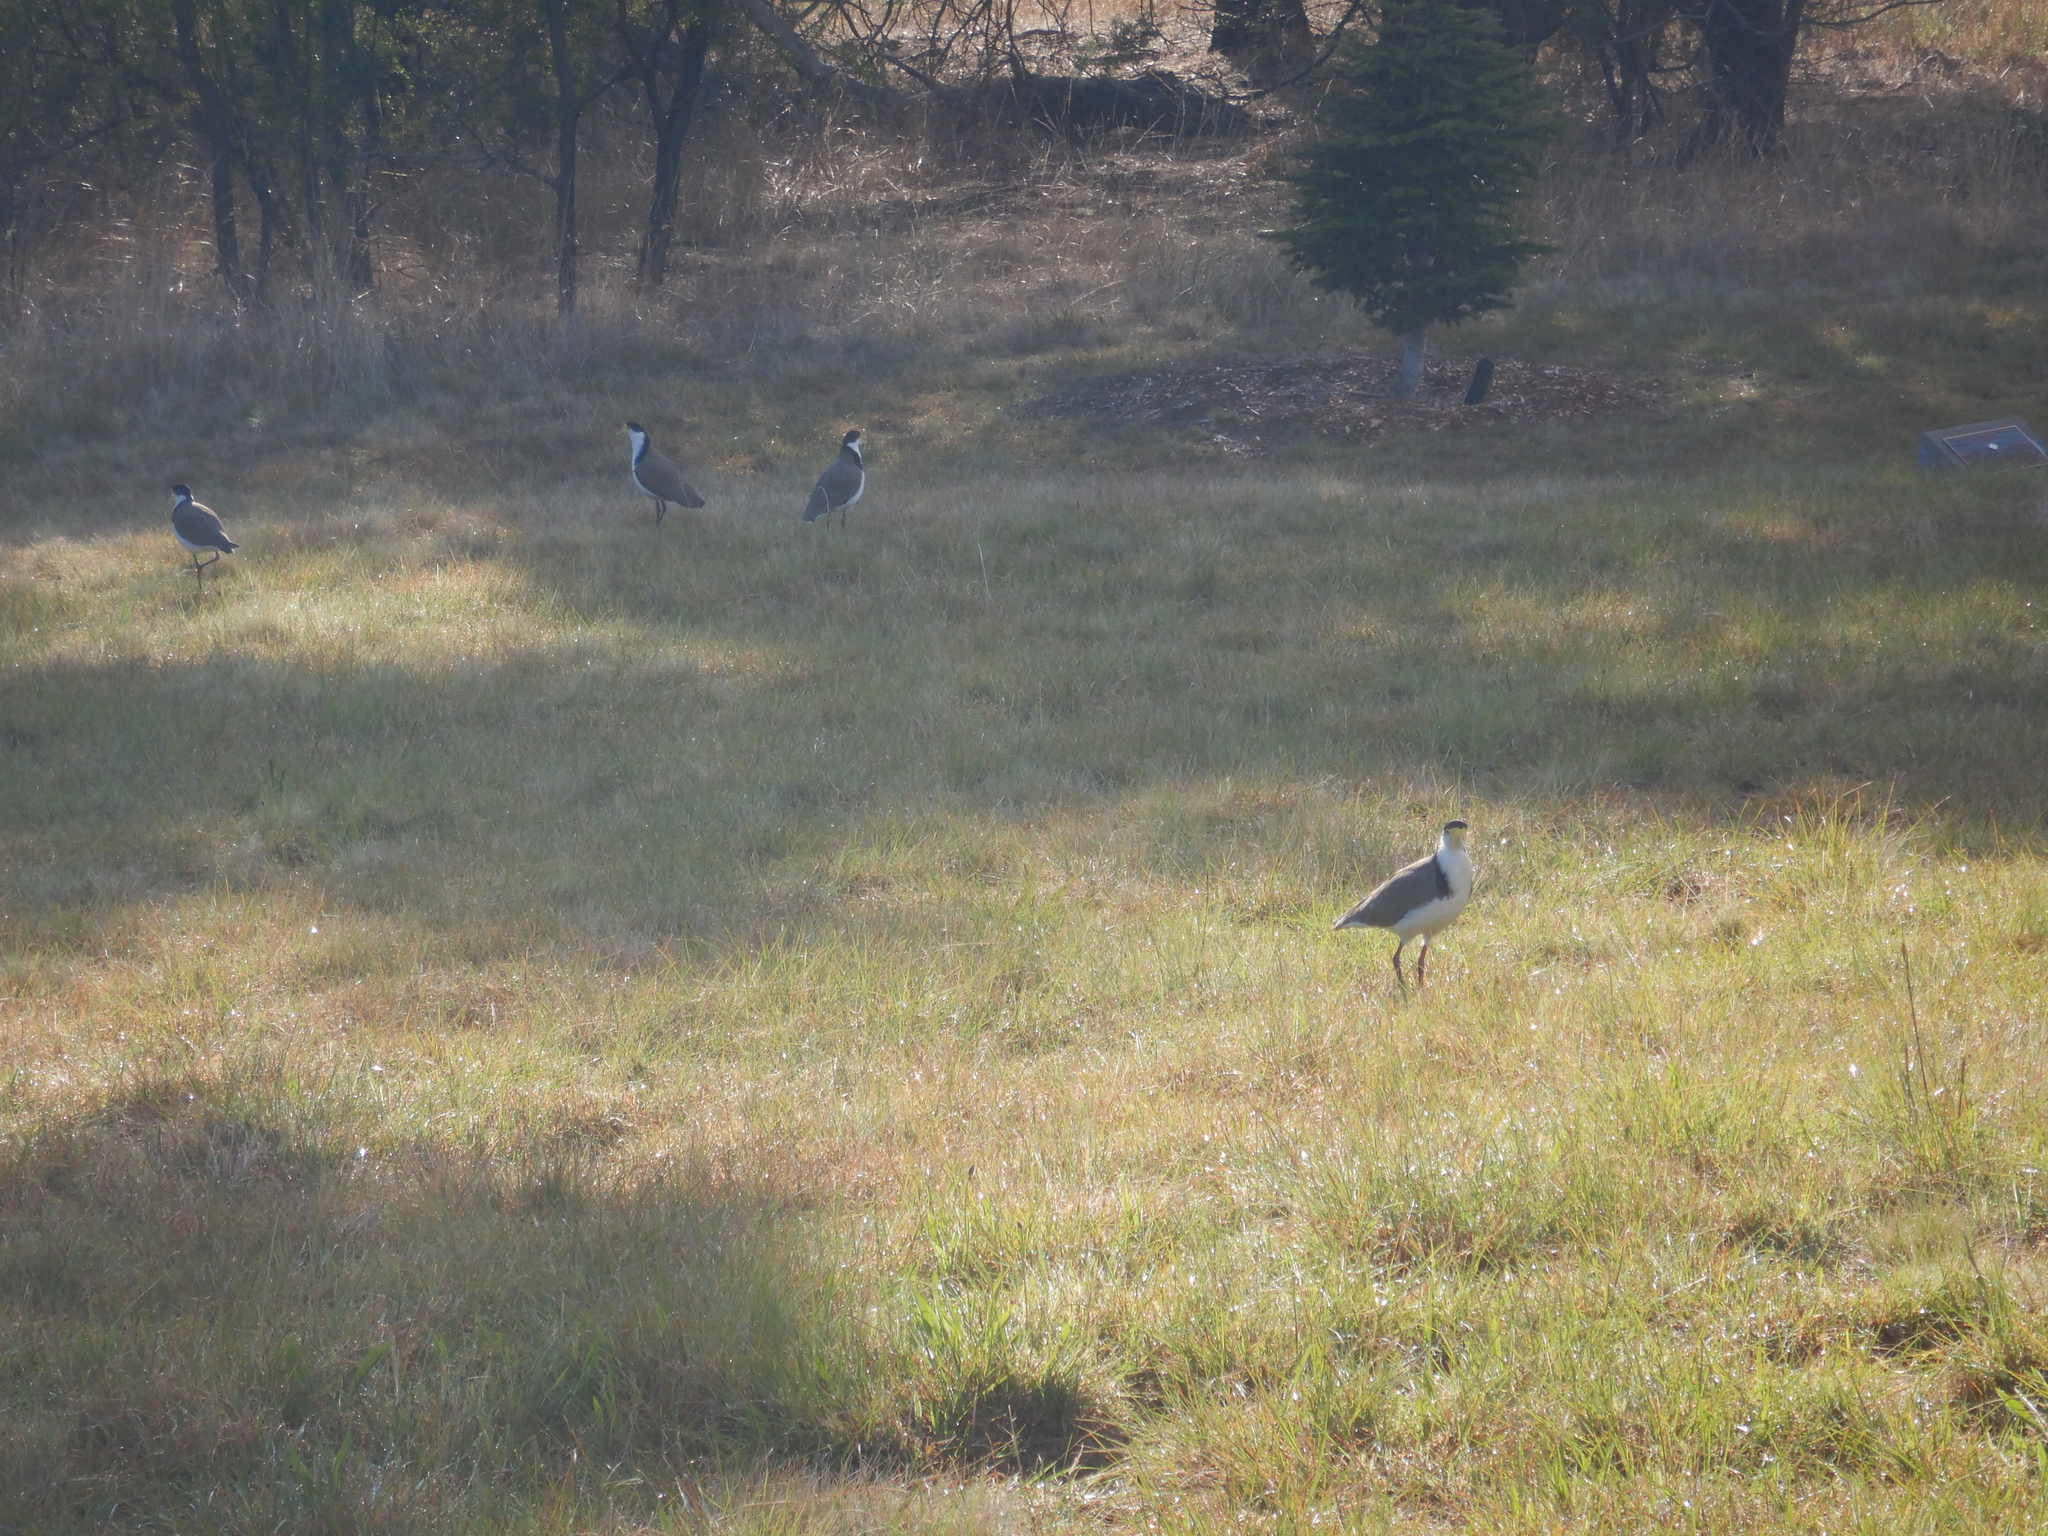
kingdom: Animalia
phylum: Chordata
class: Aves
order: Charadriiformes
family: Charadriidae
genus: Vanellus
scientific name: Vanellus miles
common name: Masked lapwing
